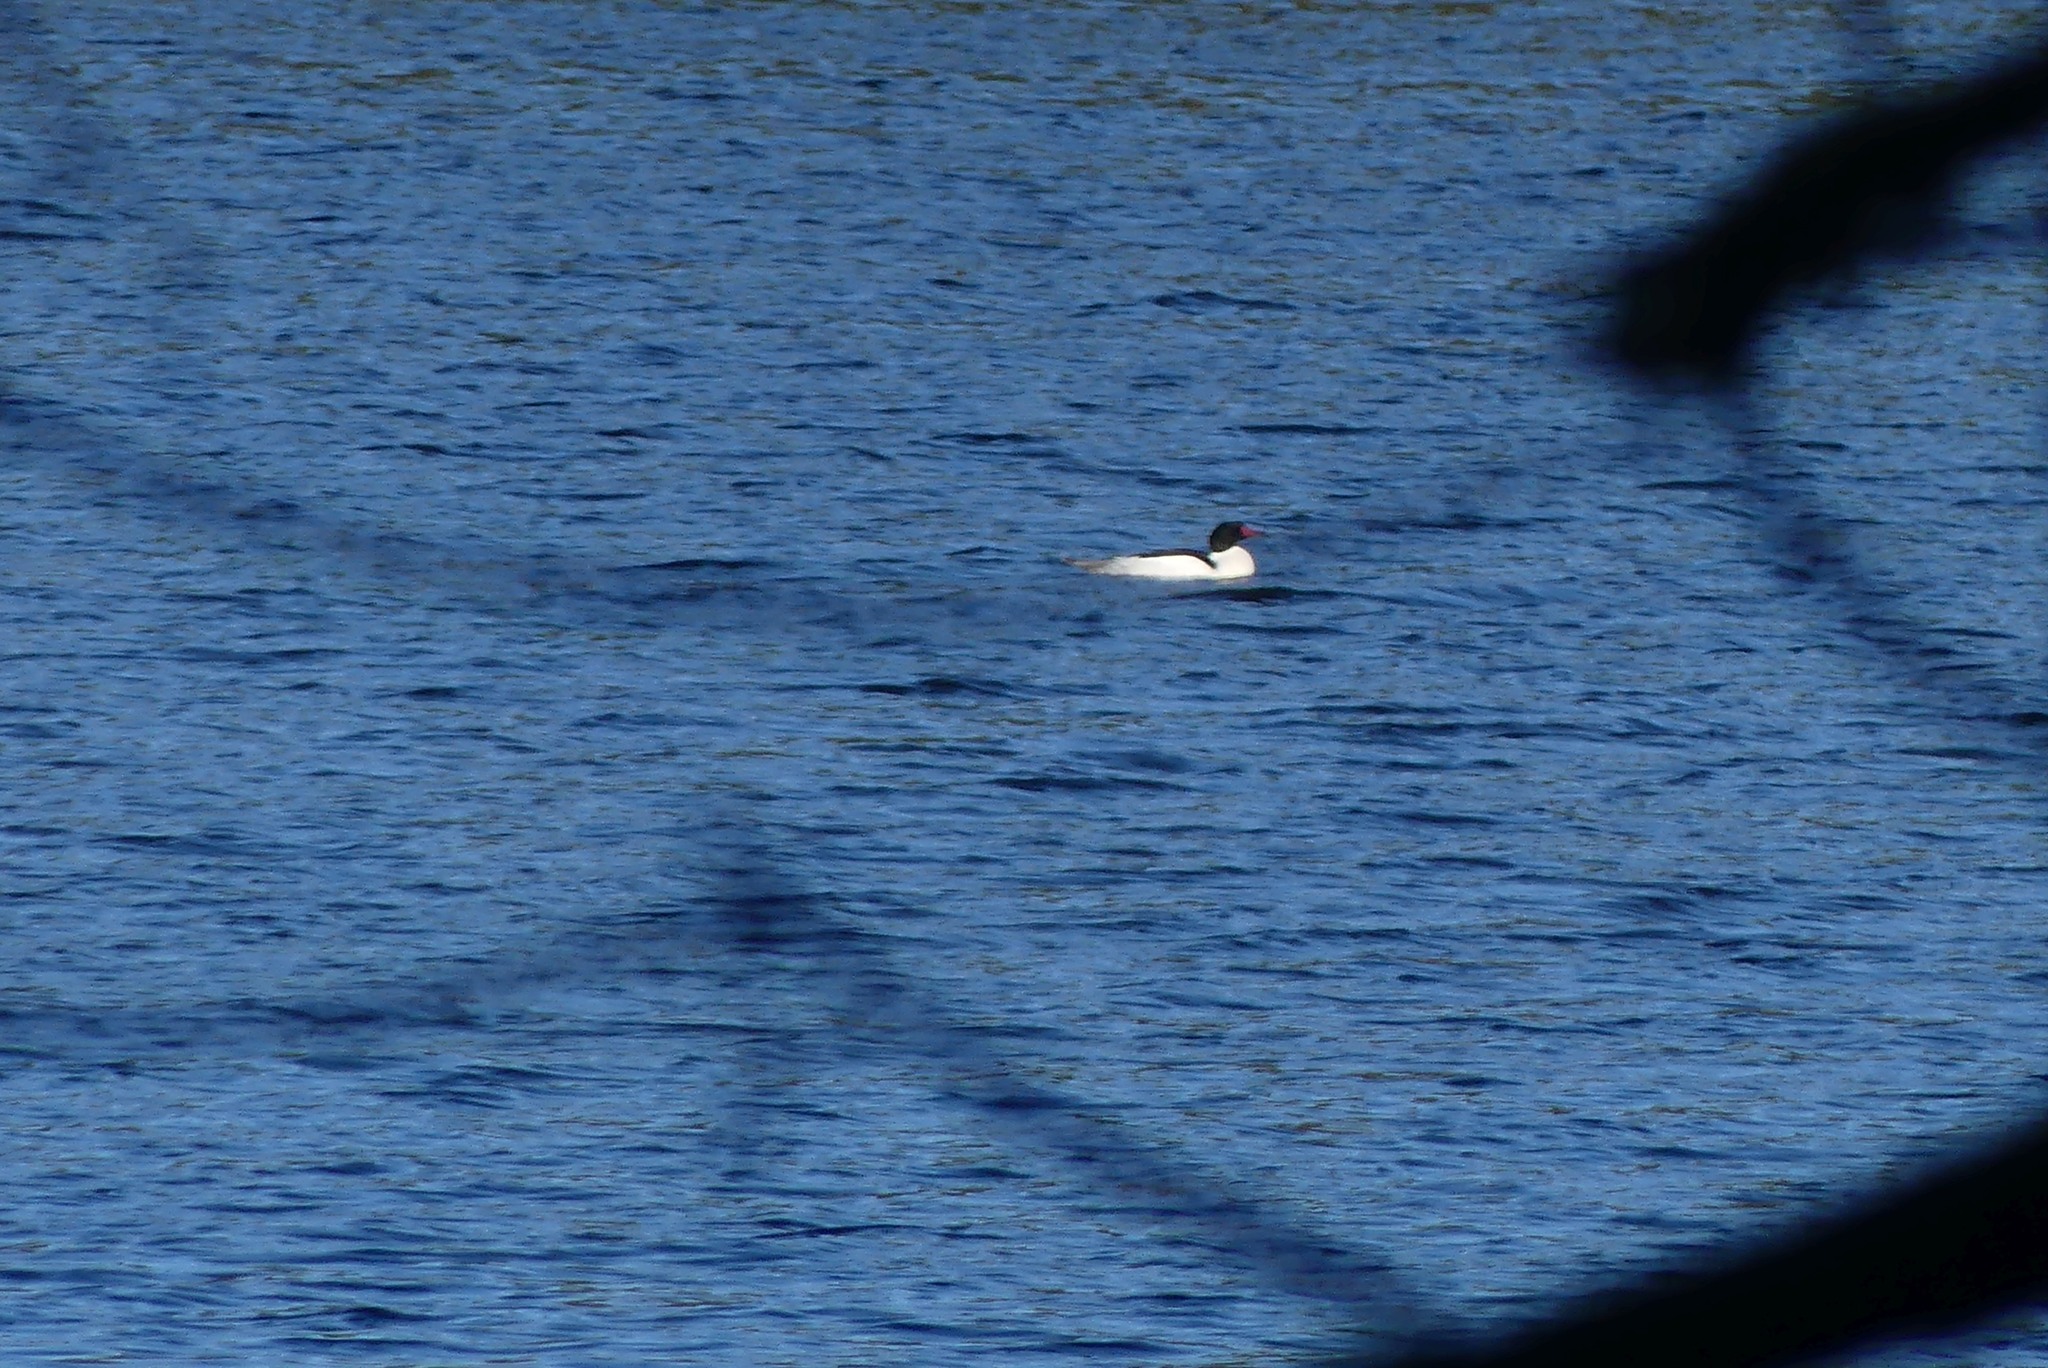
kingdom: Animalia
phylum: Chordata
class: Aves
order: Anseriformes
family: Anatidae
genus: Mergus
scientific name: Mergus merganser
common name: Common merganser
